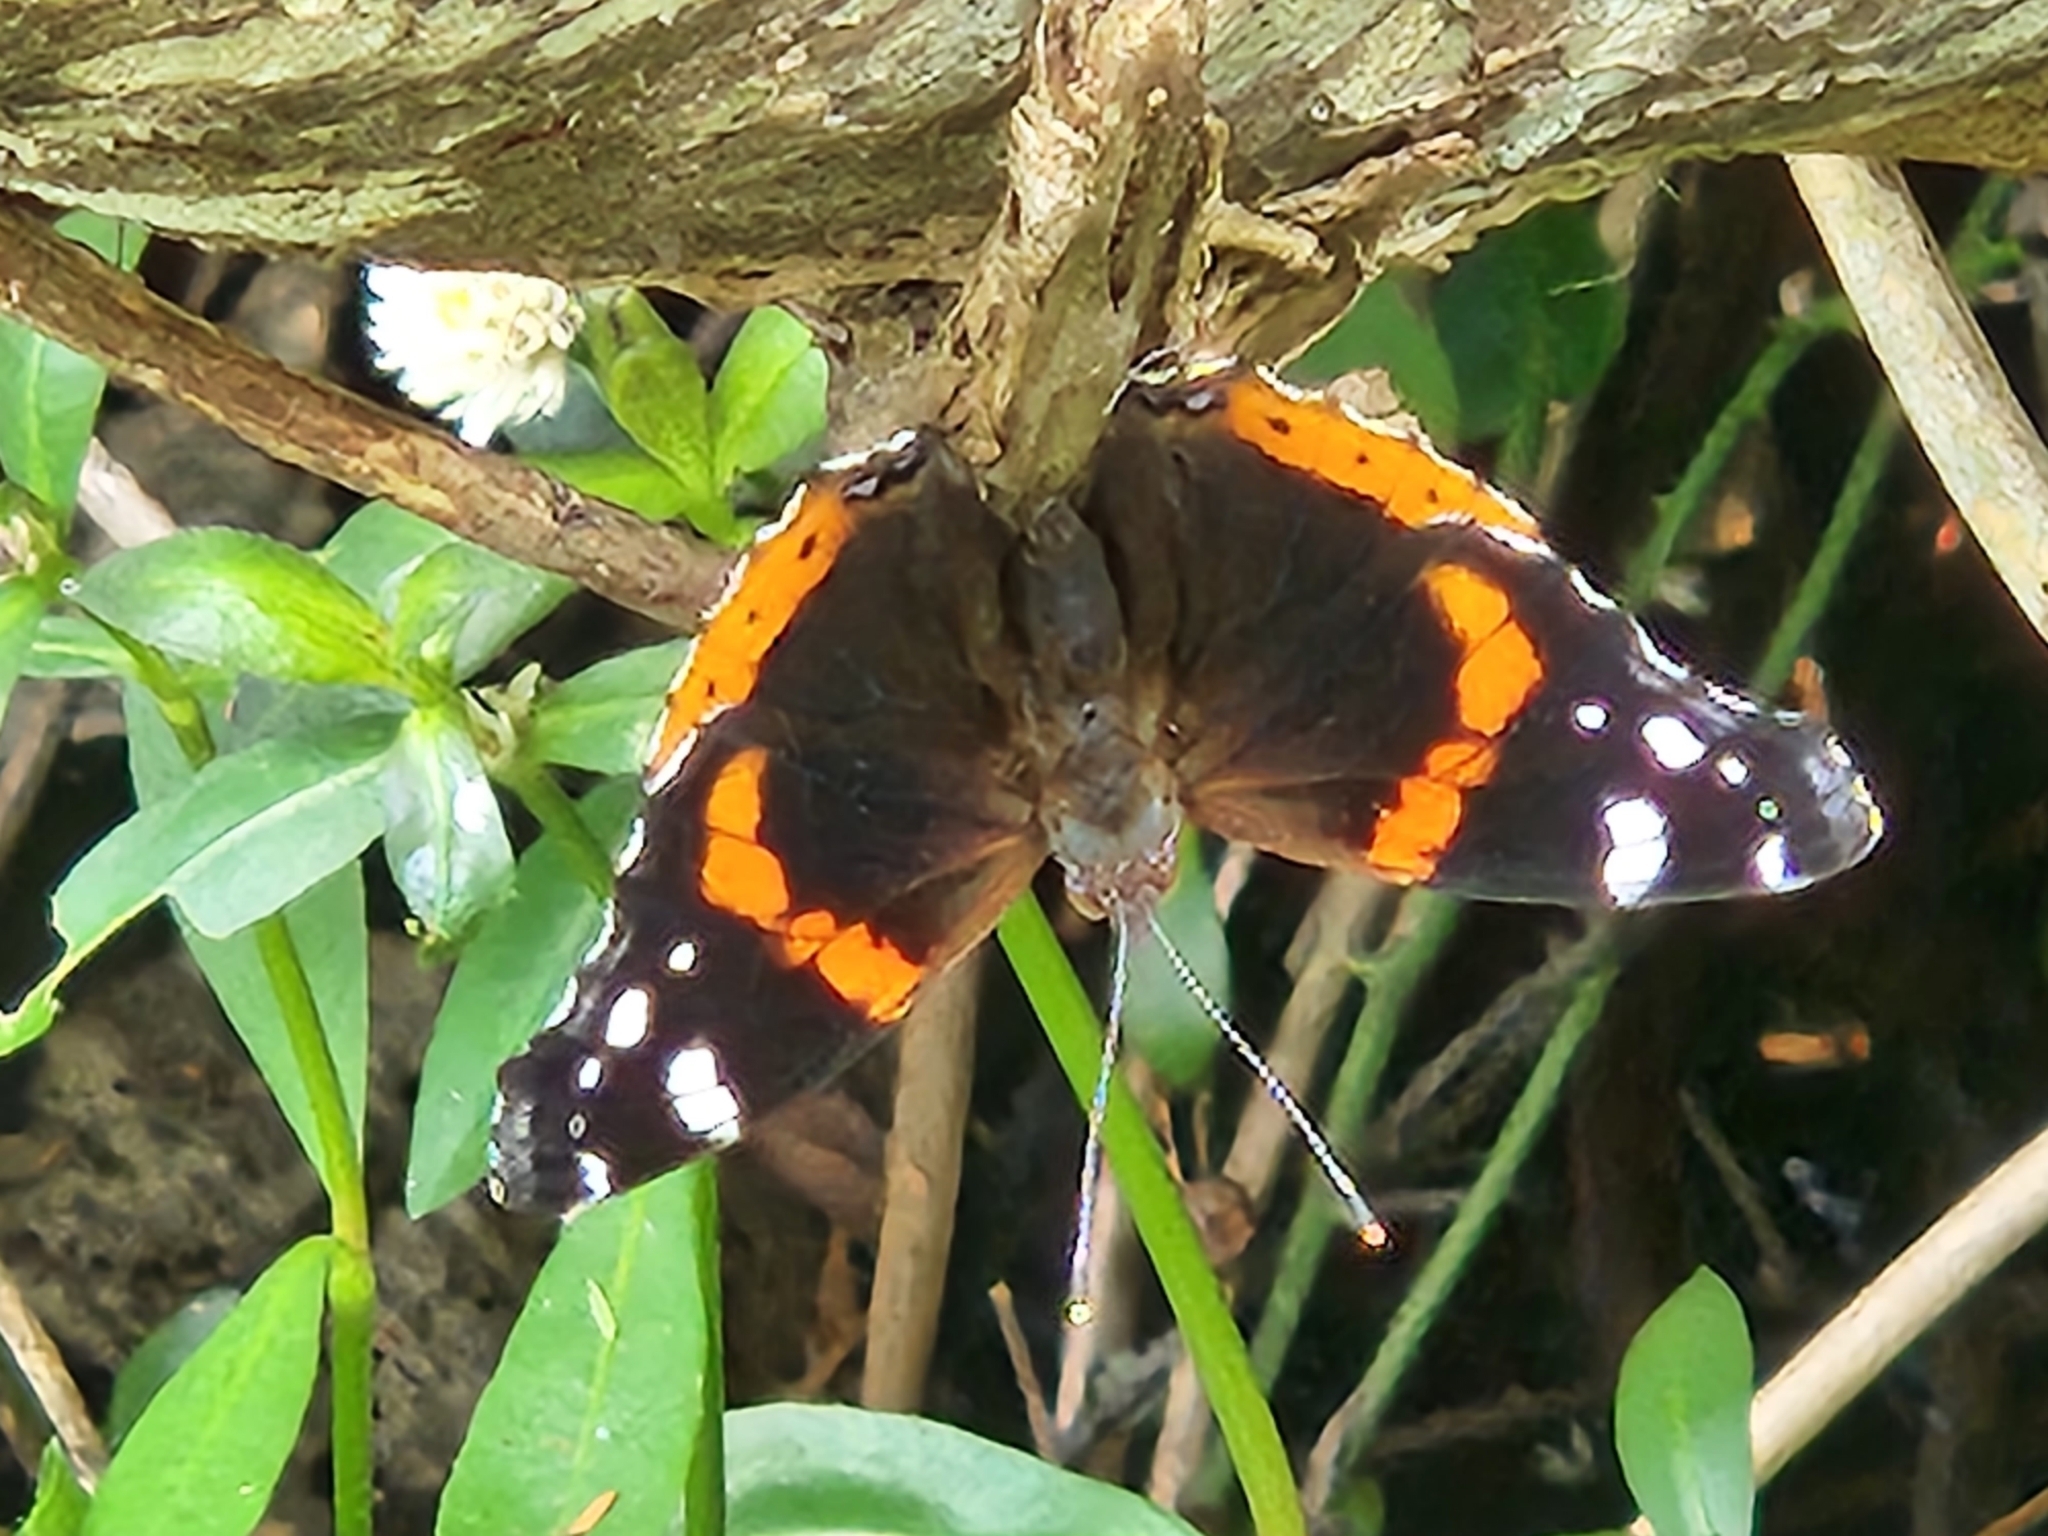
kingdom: Animalia
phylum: Arthropoda
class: Insecta
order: Lepidoptera
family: Nymphalidae
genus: Vanessa
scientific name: Vanessa atalanta
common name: Red admiral
